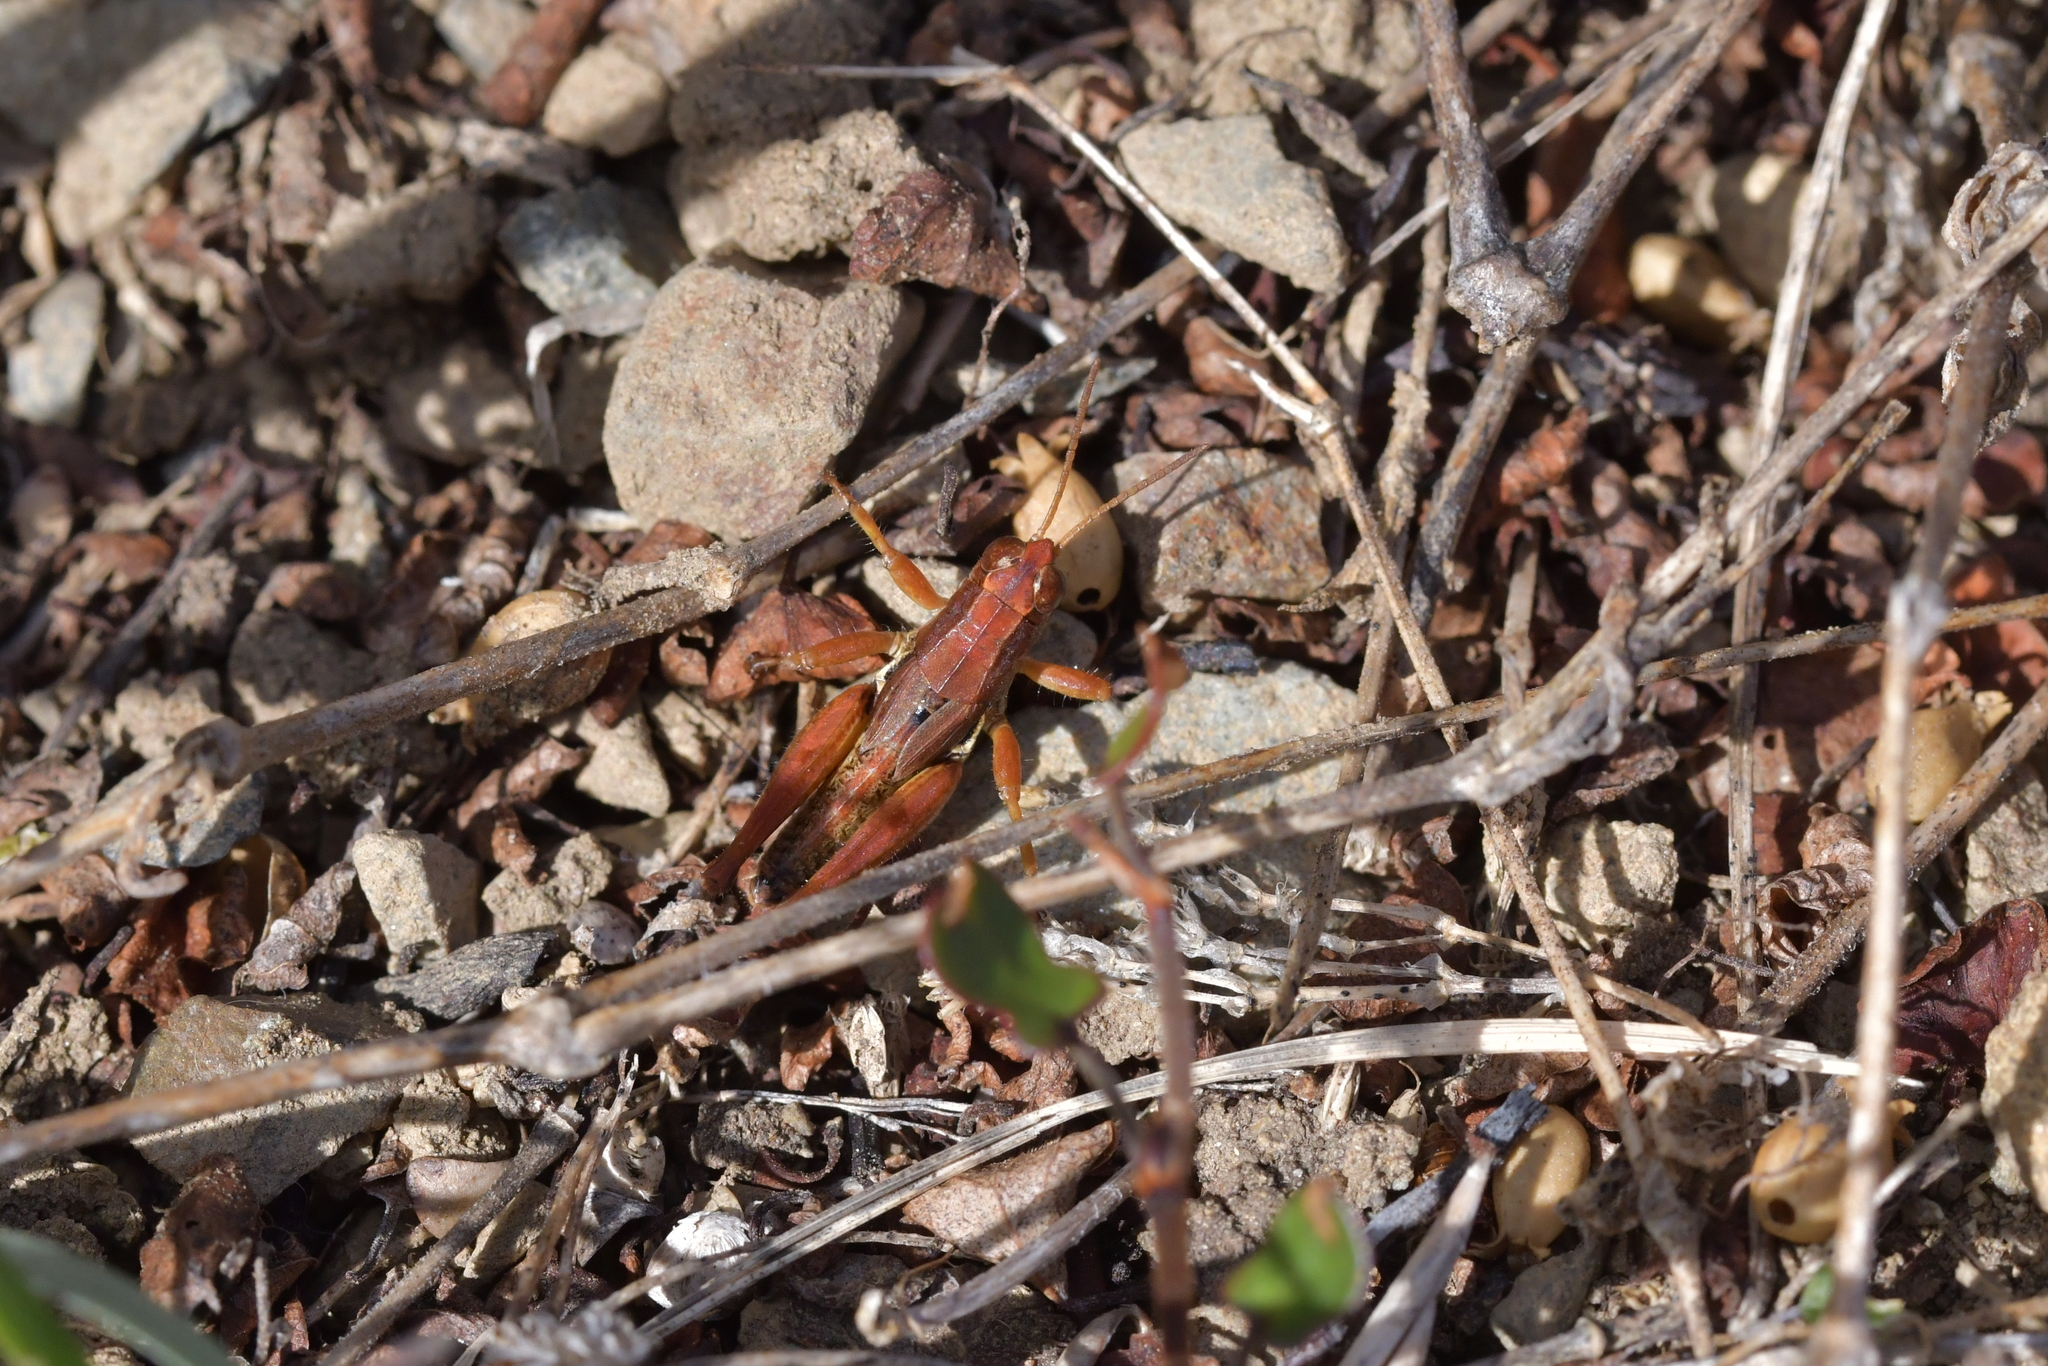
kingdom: Animalia
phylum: Arthropoda
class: Insecta
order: Orthoptera
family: Acrididae
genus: Phaulacridium
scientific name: Phaulacridium marginale
